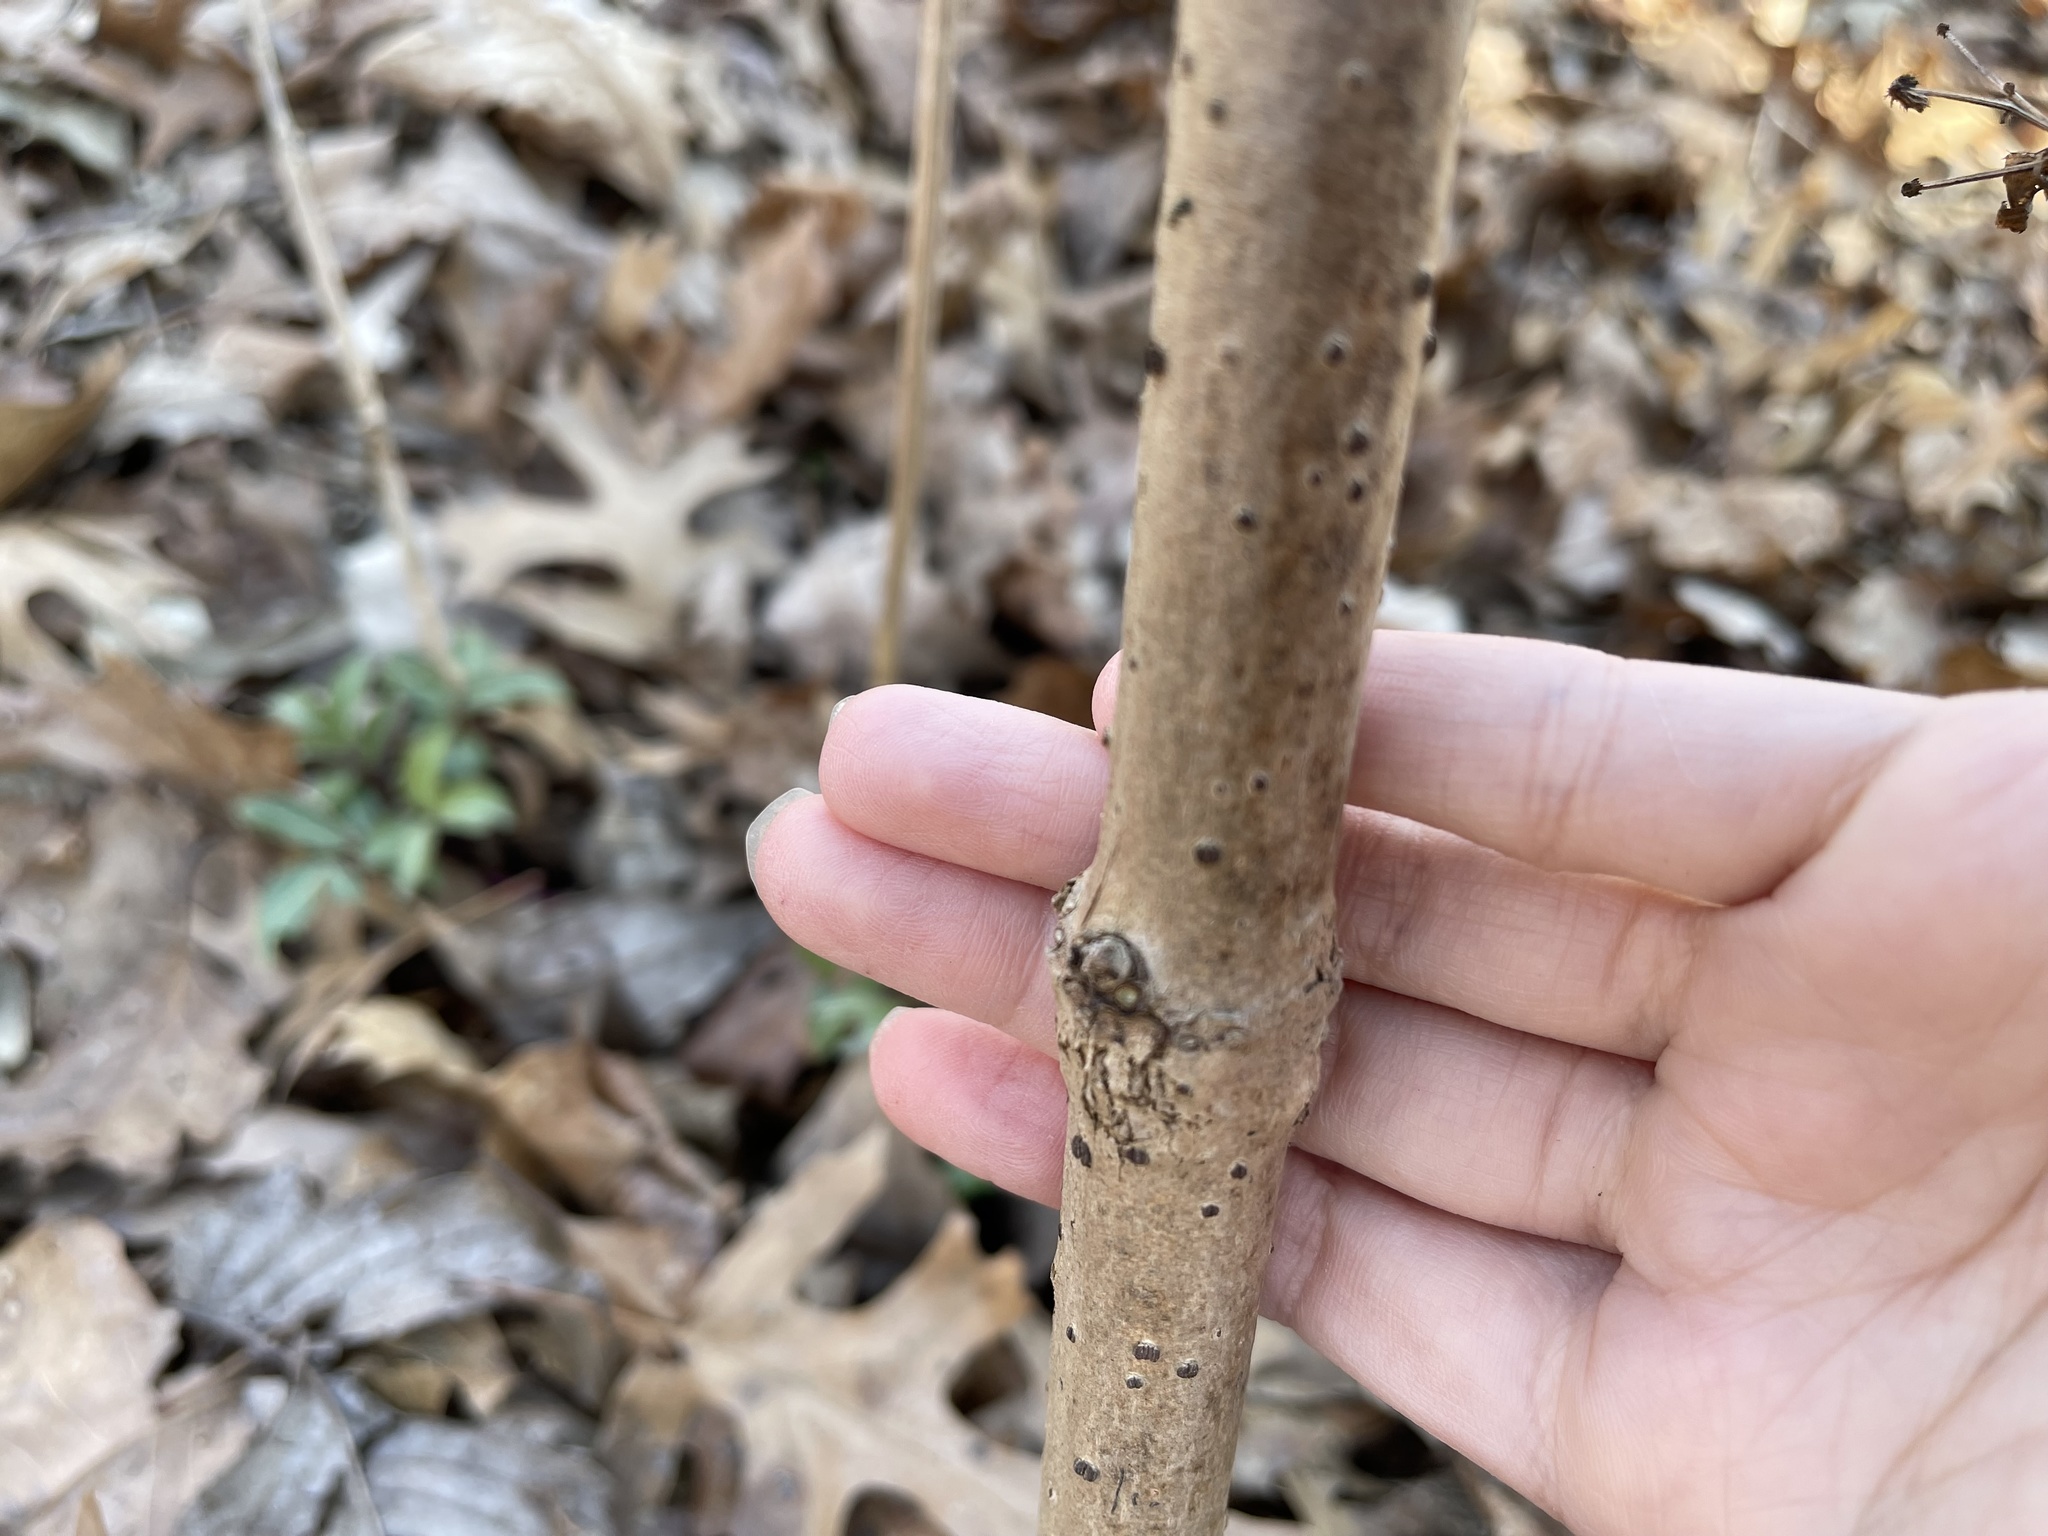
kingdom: Plantae
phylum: Tracheophyta
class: Magnoliopsida
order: Dipsacales
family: Viburnaceae
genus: Sambucus
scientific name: Sambucus canadensis
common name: American elder
